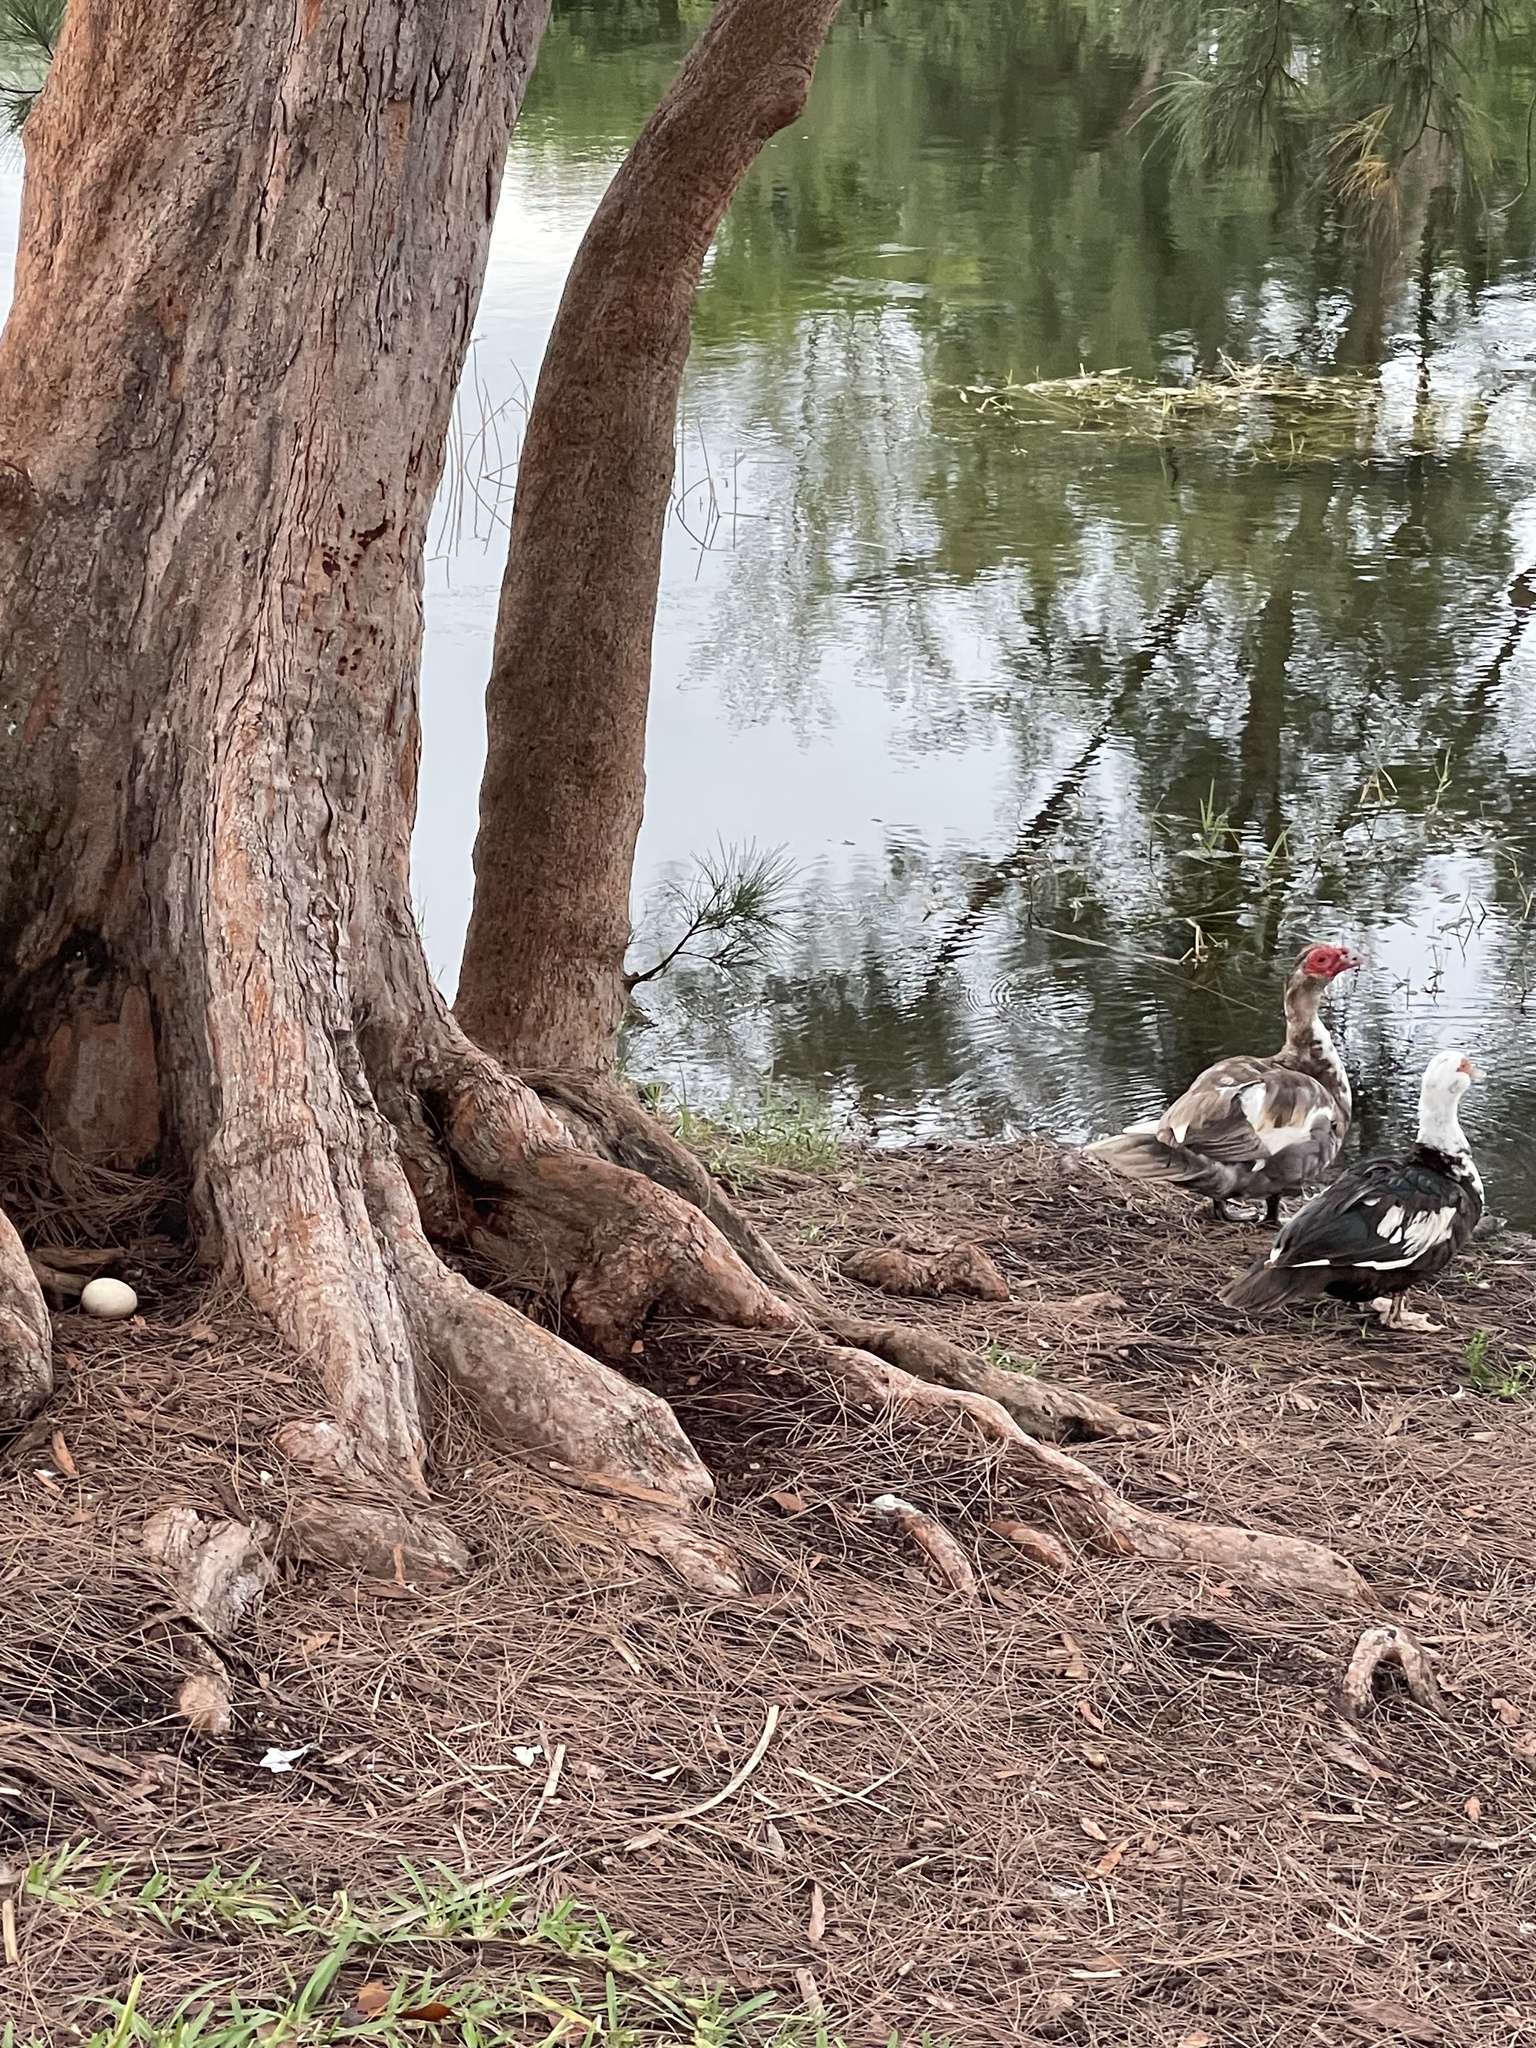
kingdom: Animalia
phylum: Chordata
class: Aves
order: Anseriformes
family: Anatidae
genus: Cairina
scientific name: Cairina moschata
